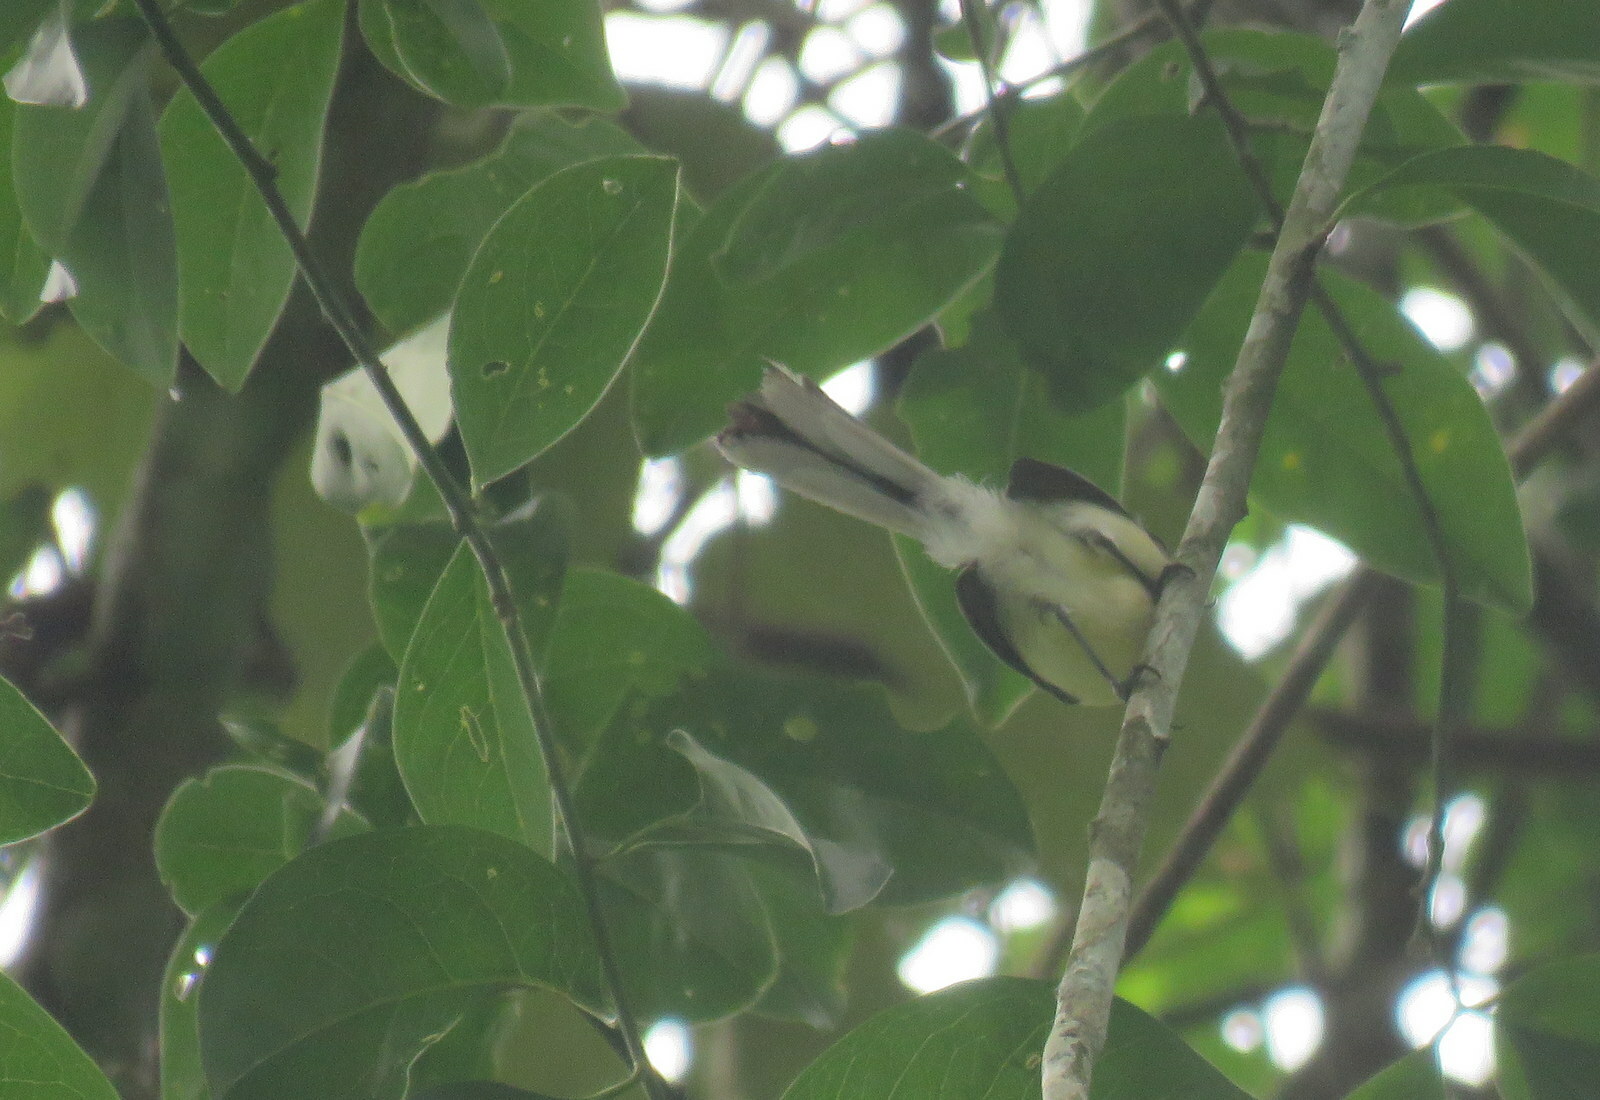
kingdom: Animalia
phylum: Chordata
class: Aves
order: Passeriformes
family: Polioptilidae
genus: Polioptila
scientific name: Polioptila lactea
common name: Creamy-bellied gnatcatcher
